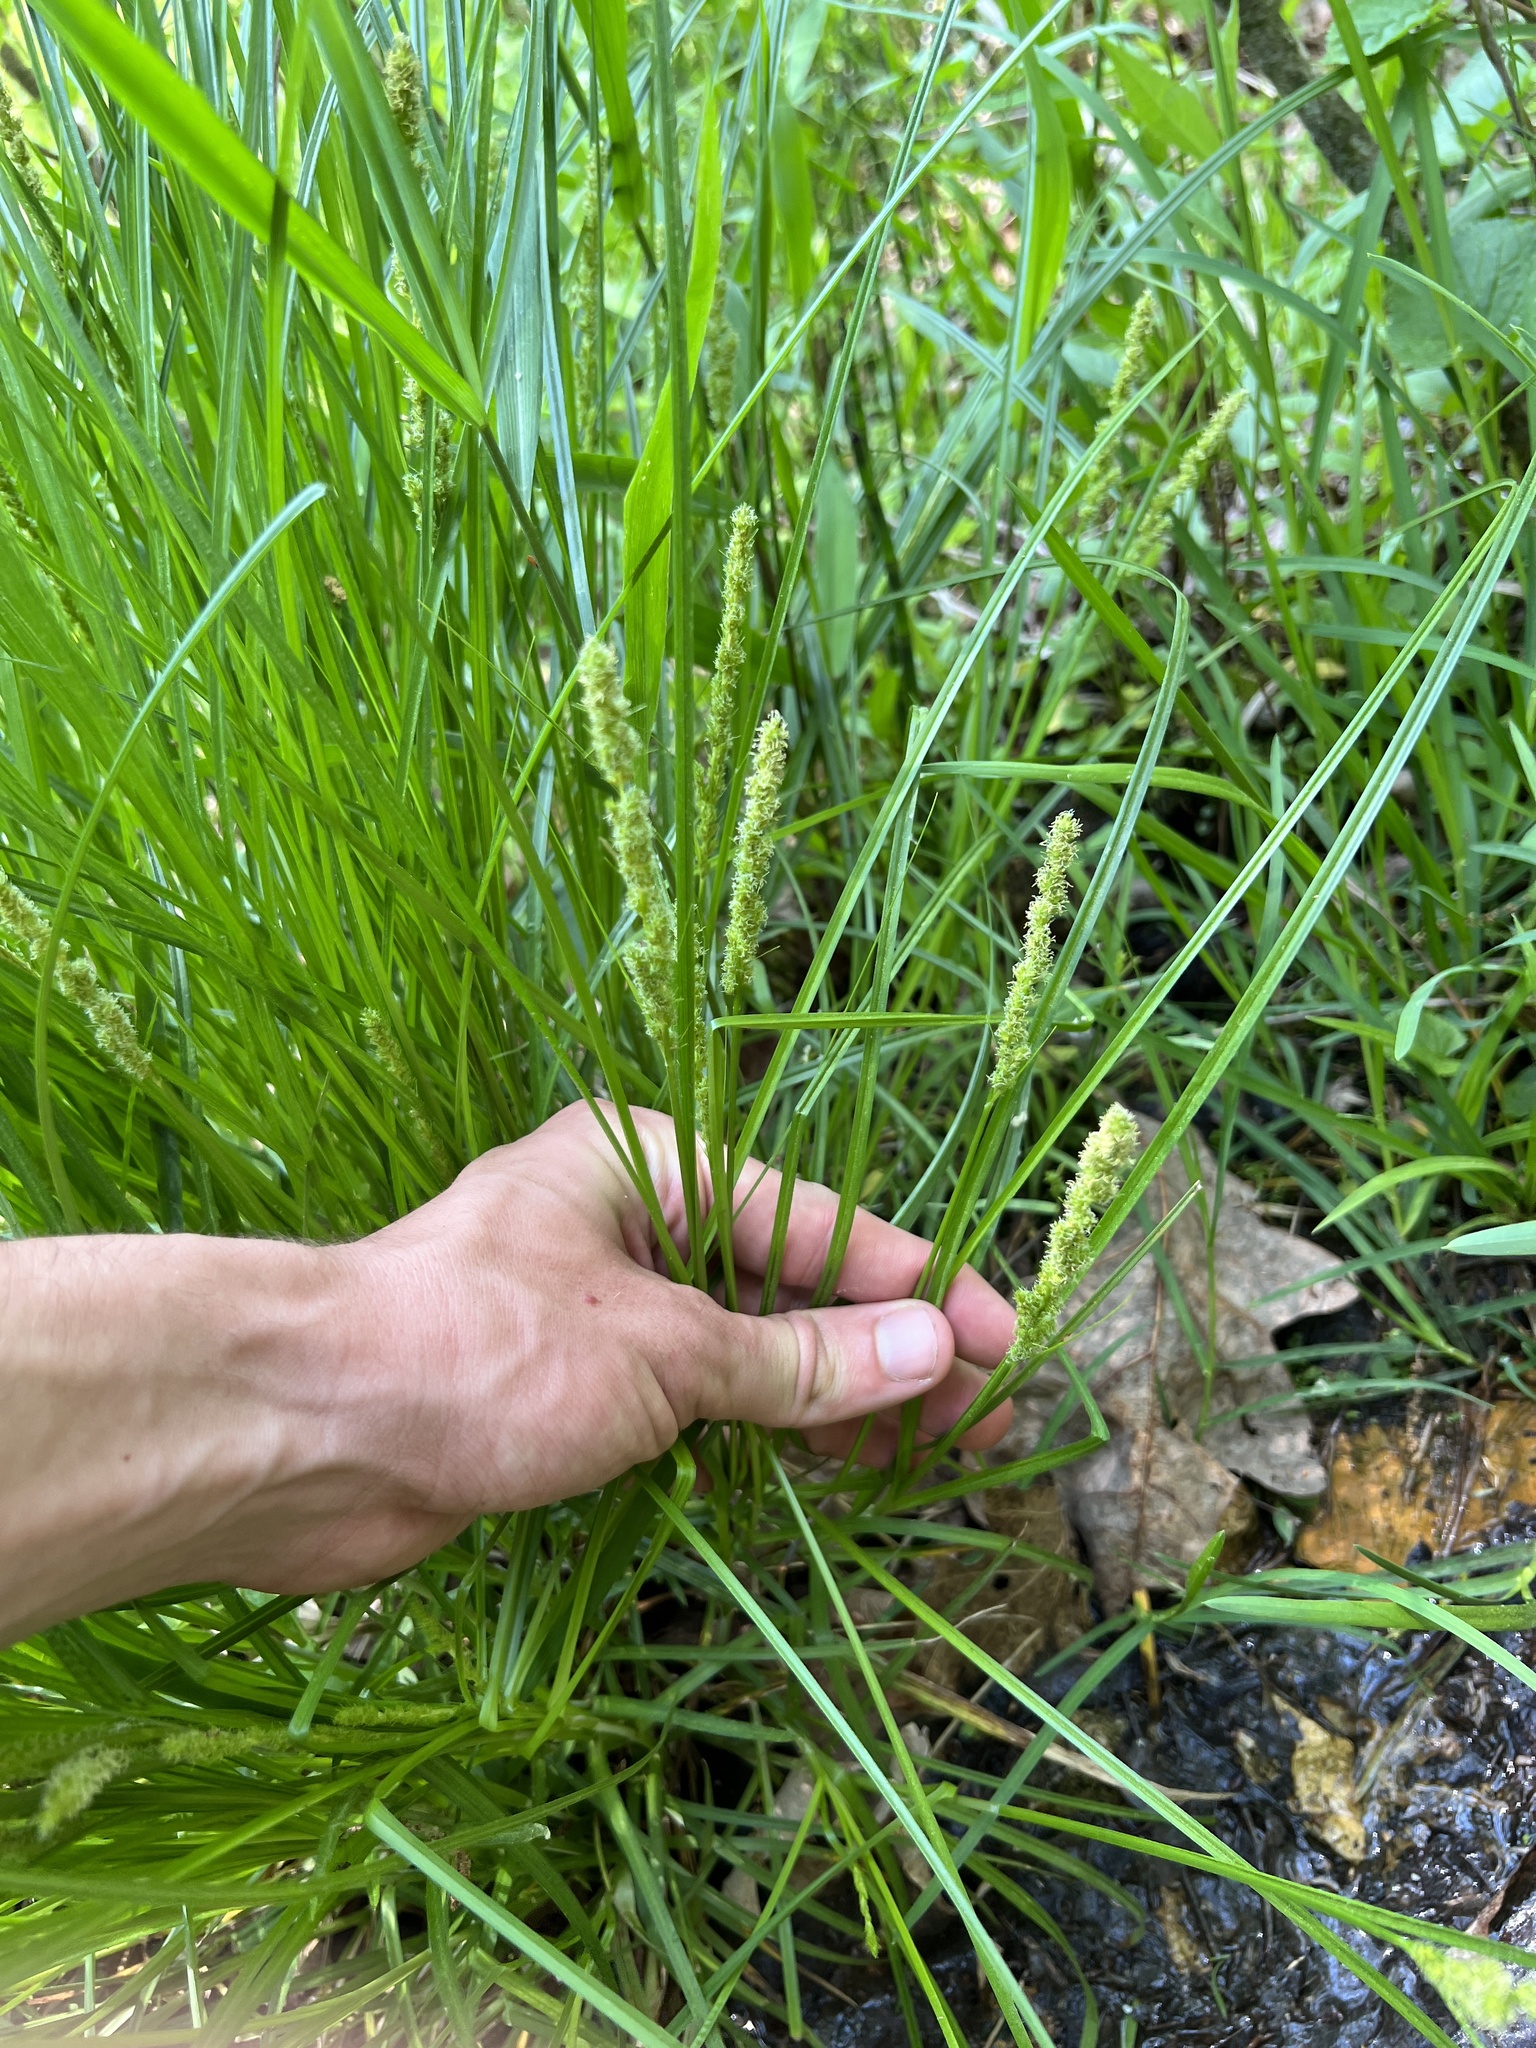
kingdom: Plantae
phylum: Tracheophyta
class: Liliopsida
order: Poales
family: Cyperaceae
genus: Carex
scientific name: Carex vulpinoidea
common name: American fox-sedge
